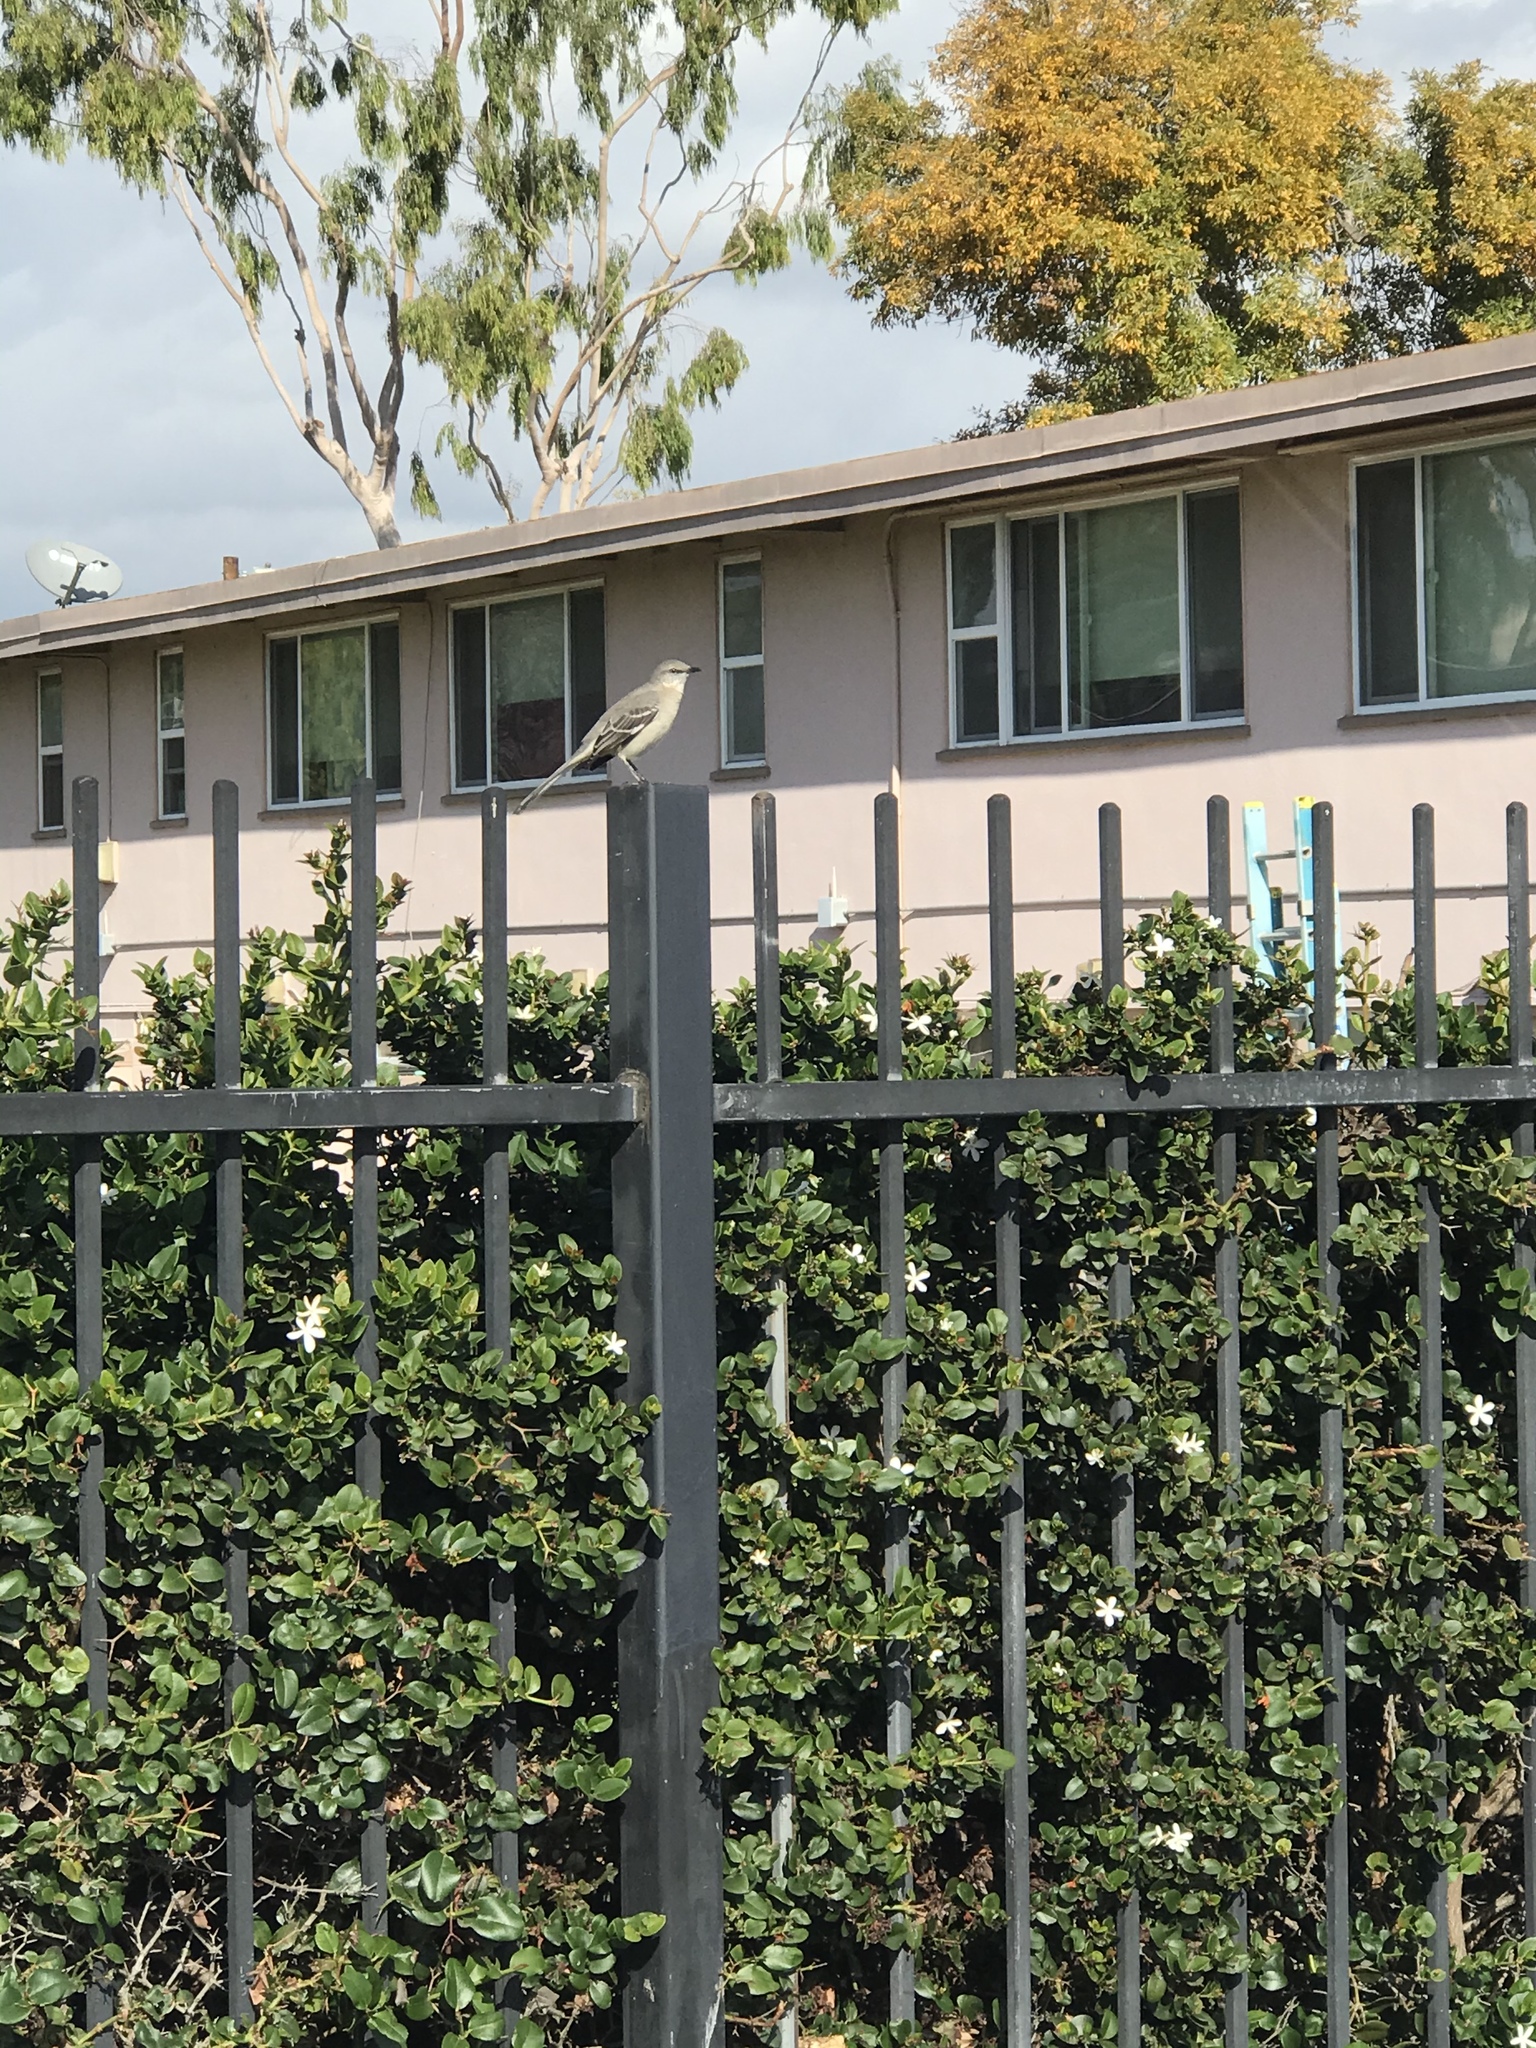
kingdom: Animalia
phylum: Chordata
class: Aves
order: Passeriformes
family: Mimidae
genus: Mimus
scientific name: Mimus polyglottos
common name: Northern mockingbird
